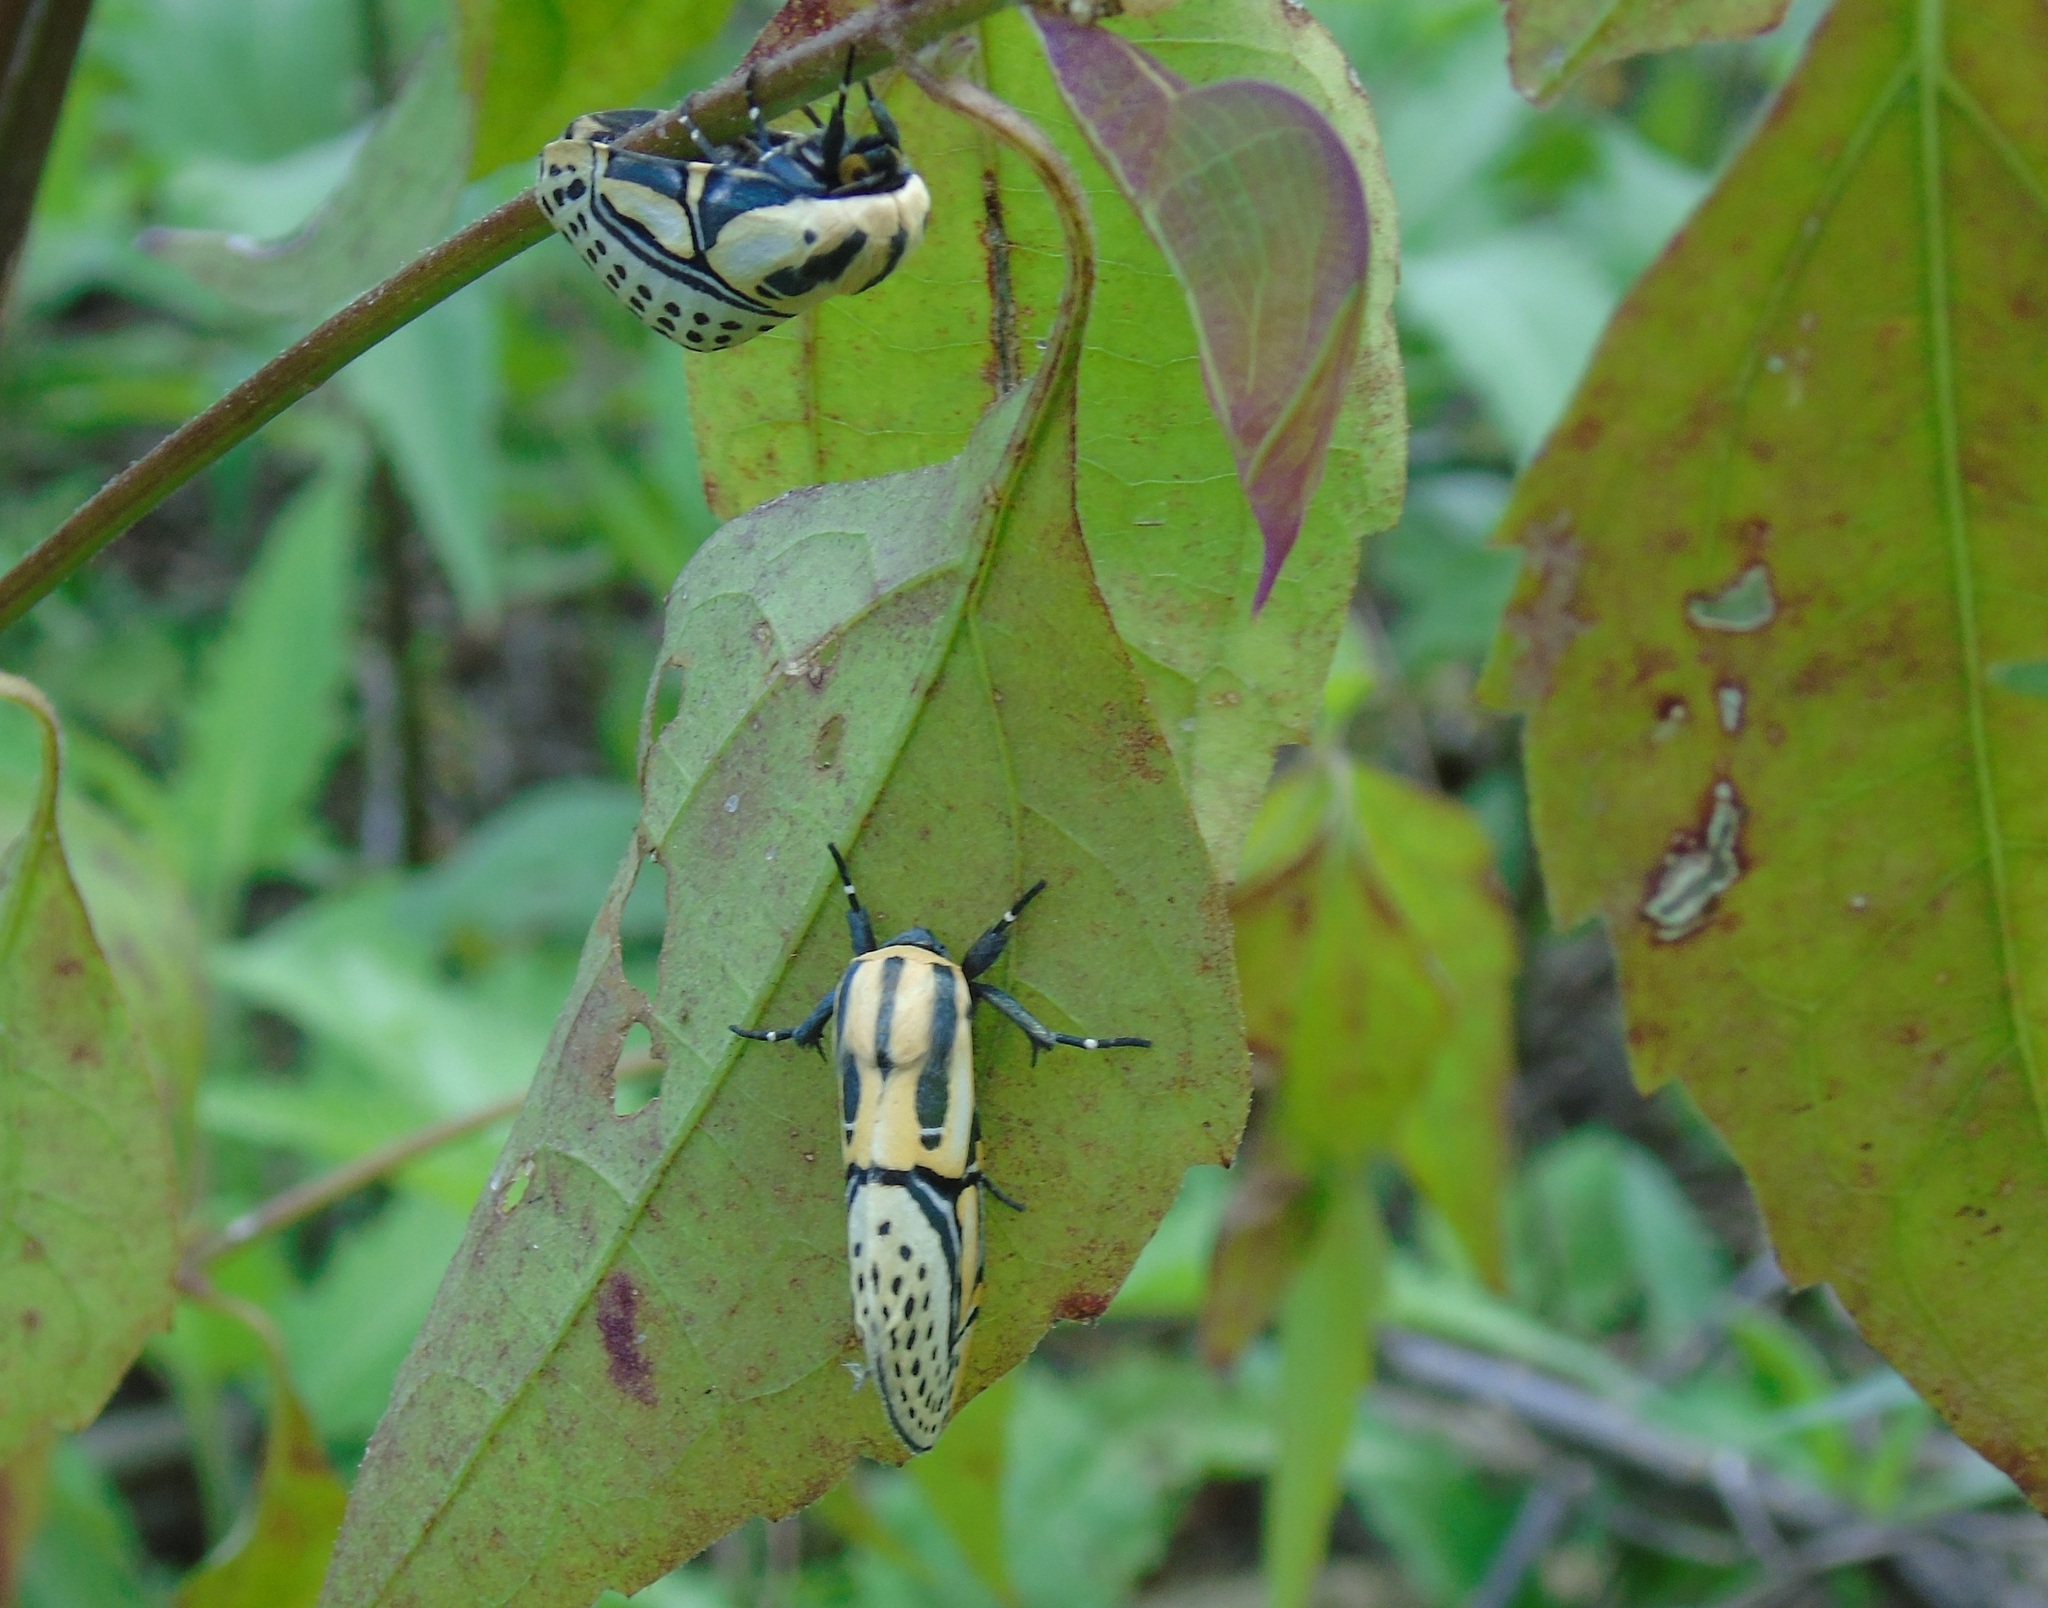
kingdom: Animalia
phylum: Arthropoda
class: Insecta
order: Lepidoptera
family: Erebidae
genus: Diphthera
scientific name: Diphthera festiva
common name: Hieroglyphic moth
